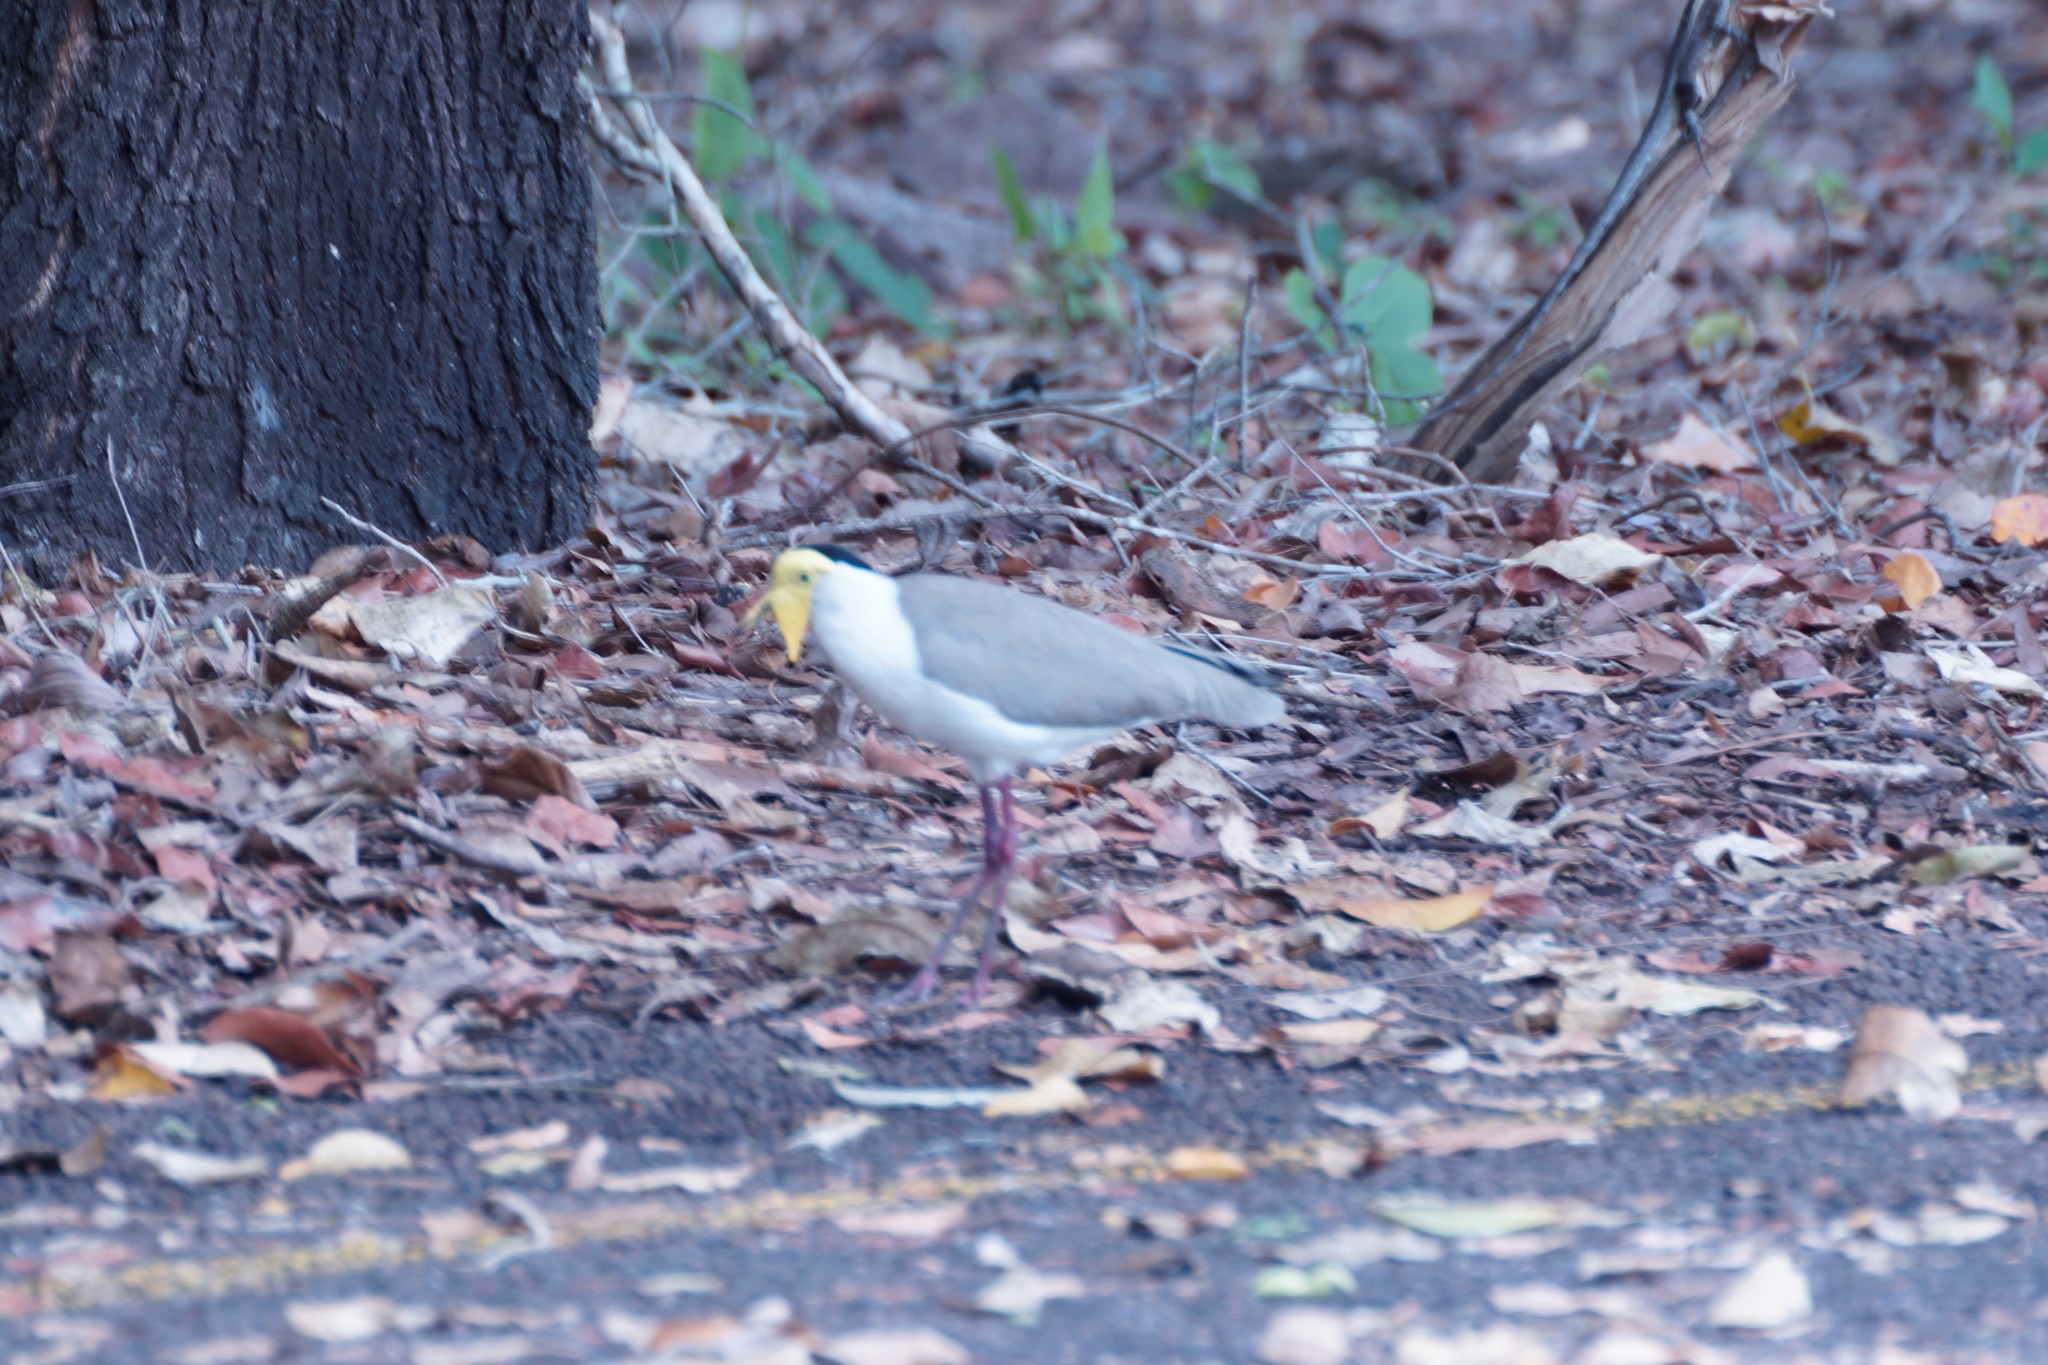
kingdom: Animalia
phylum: Chordata
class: Aves
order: Charadriiformes
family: Charadriidae
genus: Vanellus
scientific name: Vanellus miles
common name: Masked lapwing
